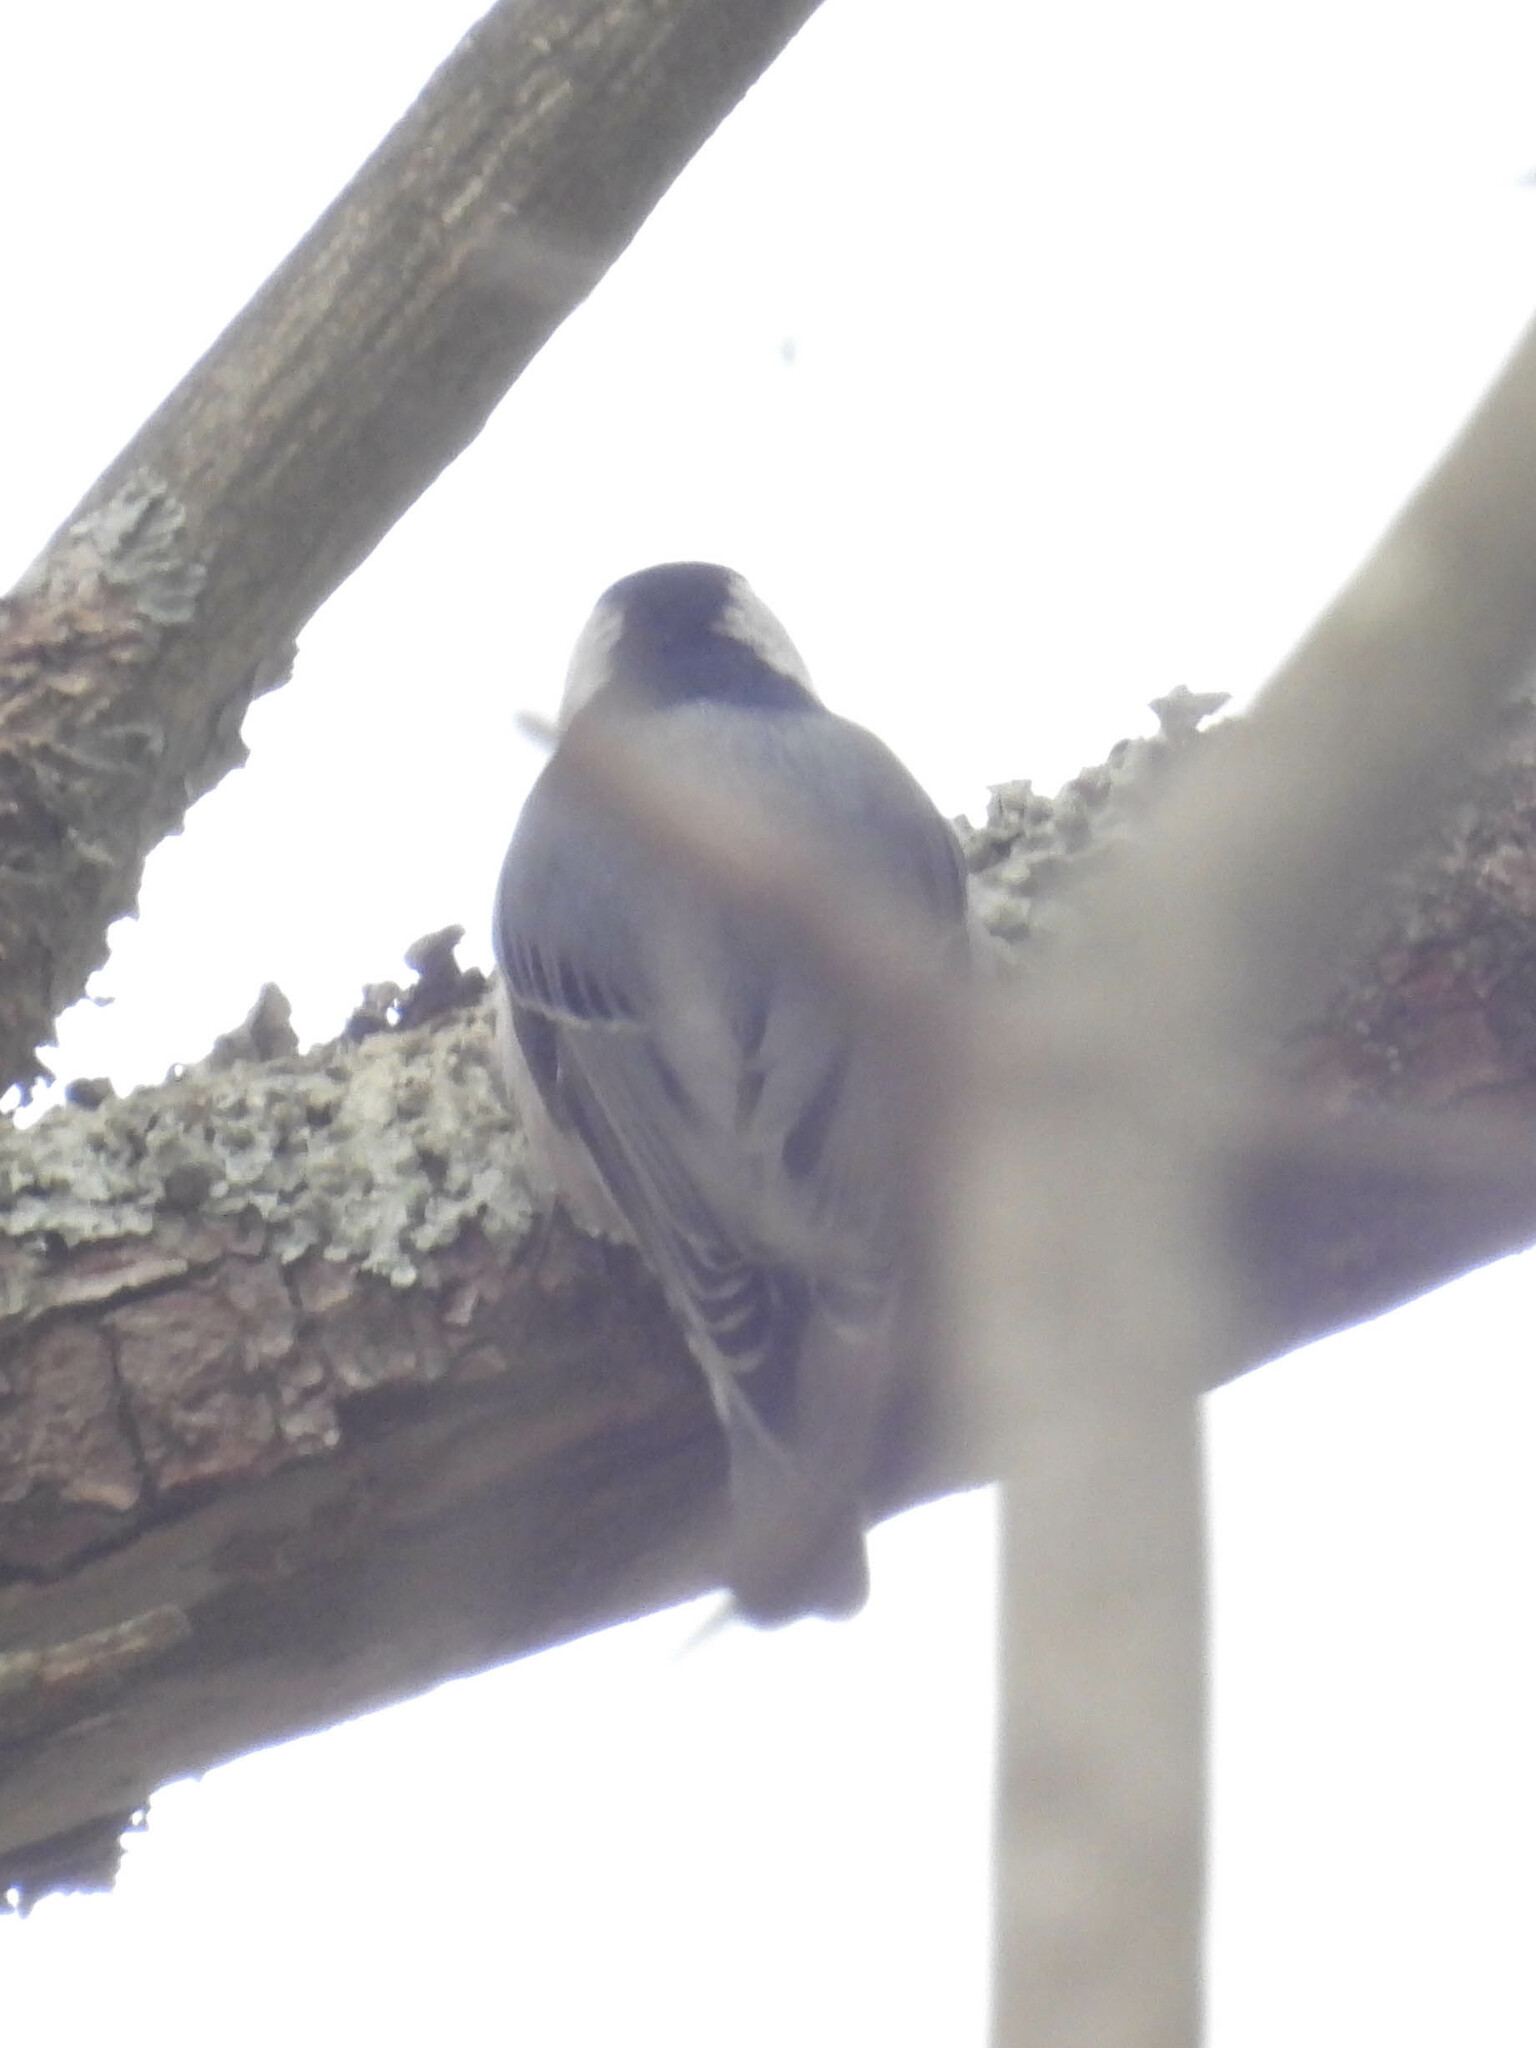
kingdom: Animalia
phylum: Chordata
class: Aves
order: Passeriformes
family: Sittidae
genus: Sitta
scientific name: Sitta carolinensis
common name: White-breasted nuthatch
